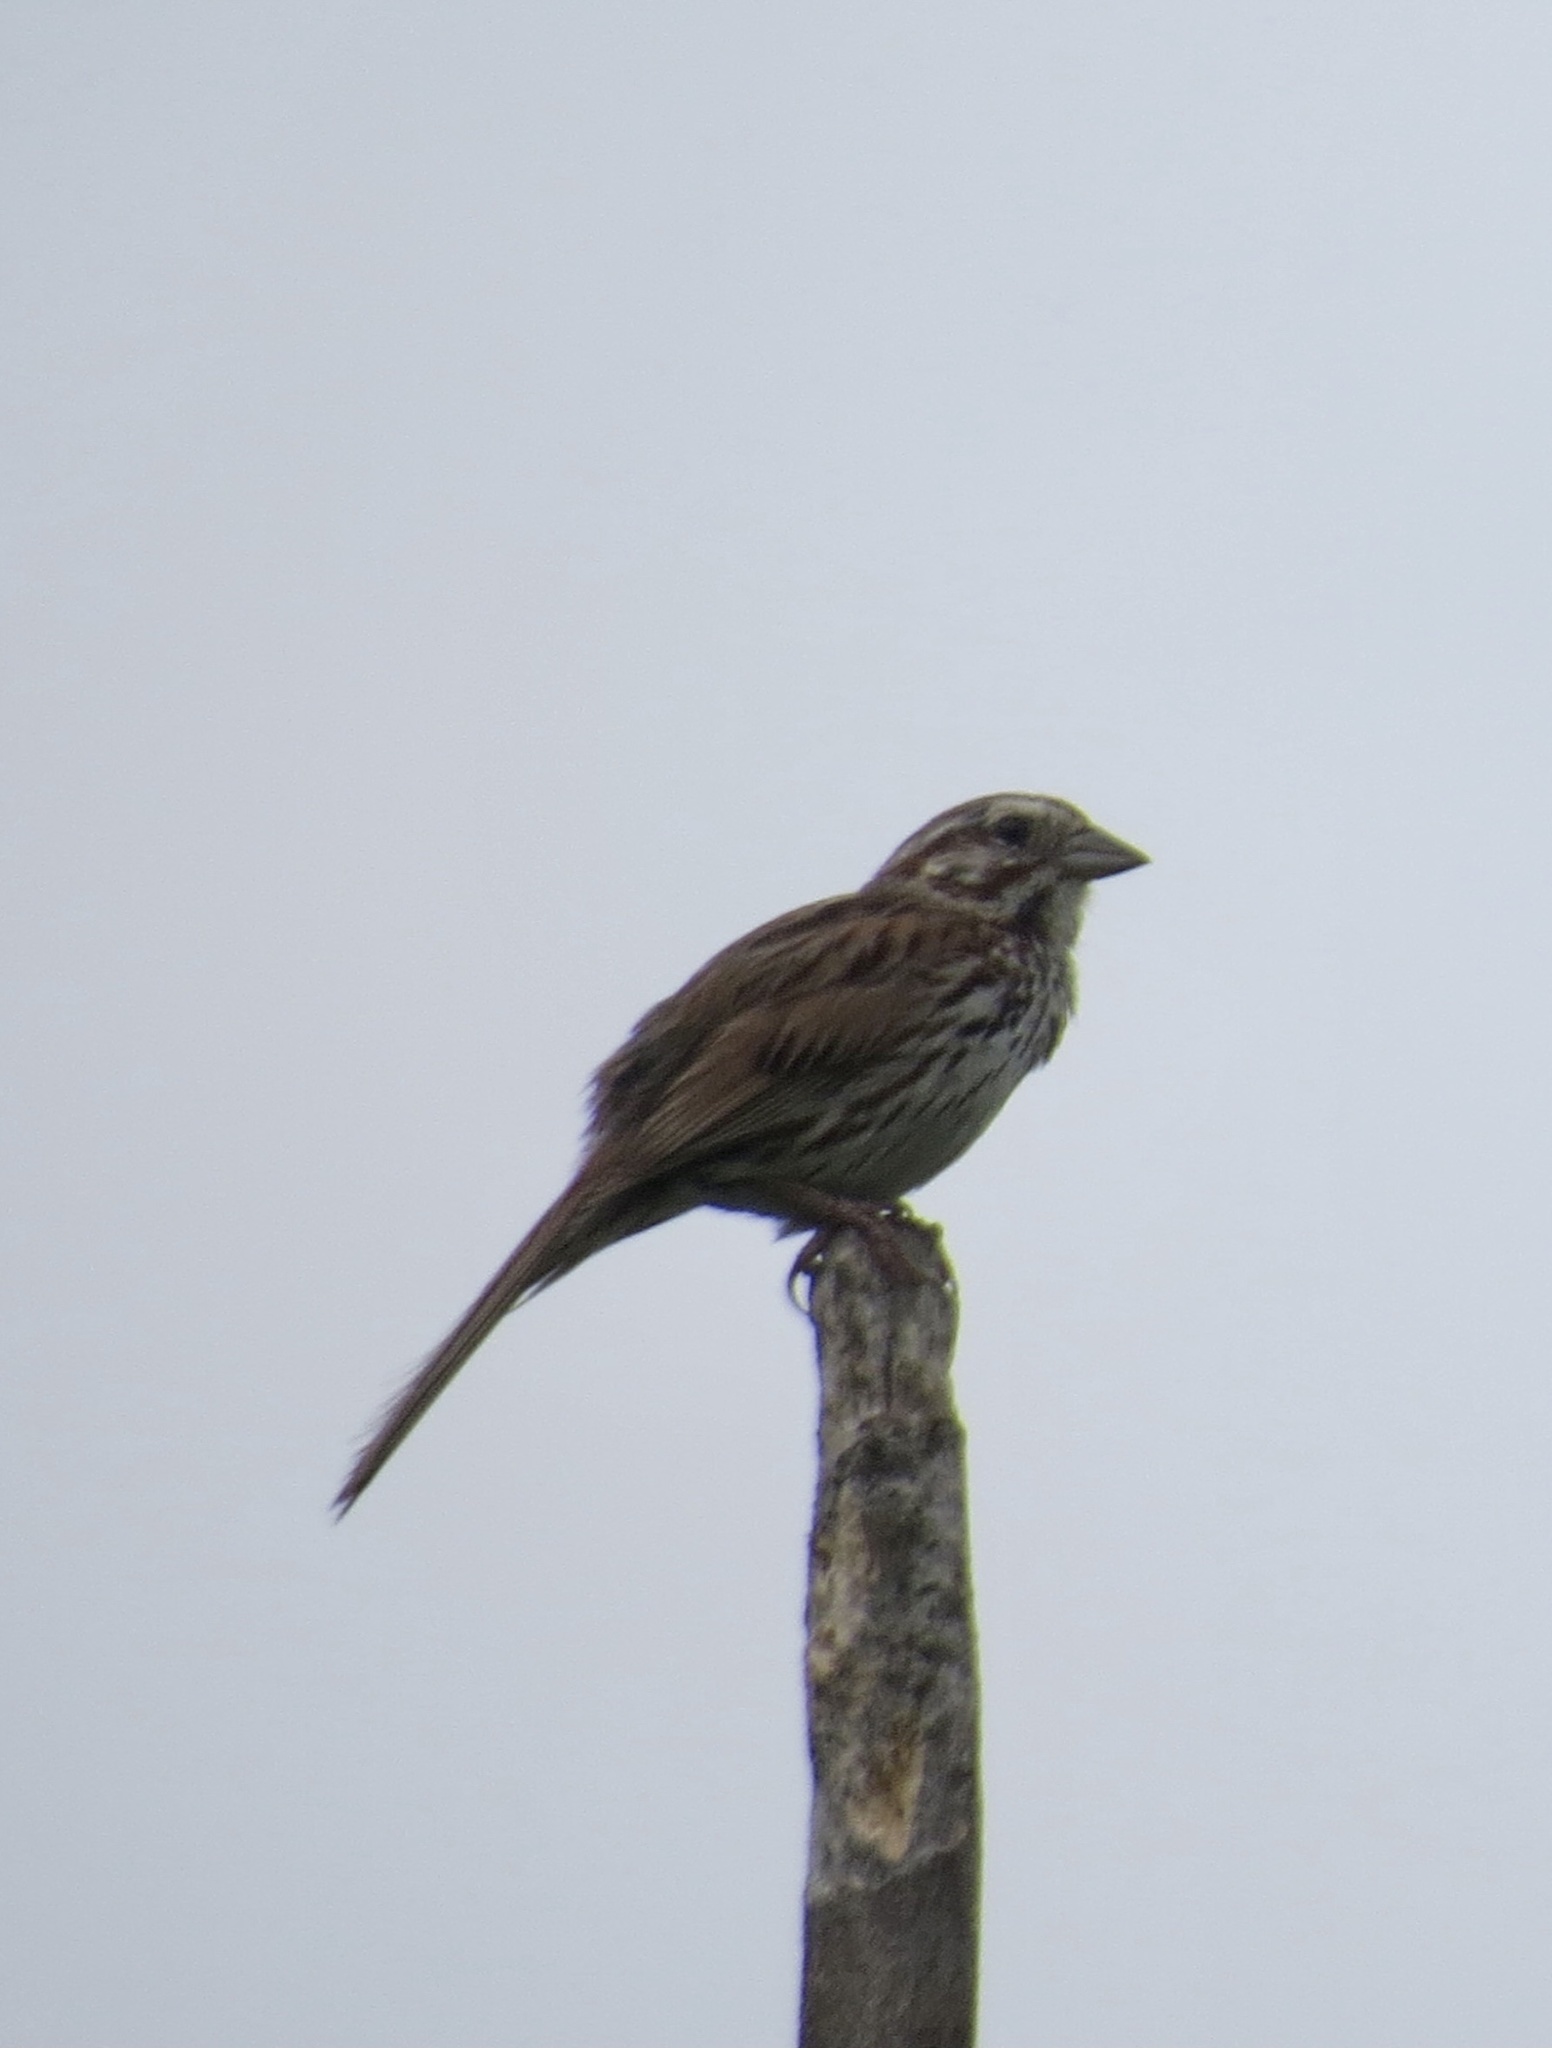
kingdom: Animalia
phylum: Chordata
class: Aves
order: Passeriformes
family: Passerellidae
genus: Melospiza
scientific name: Melospiza melodia
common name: Song sparrow
